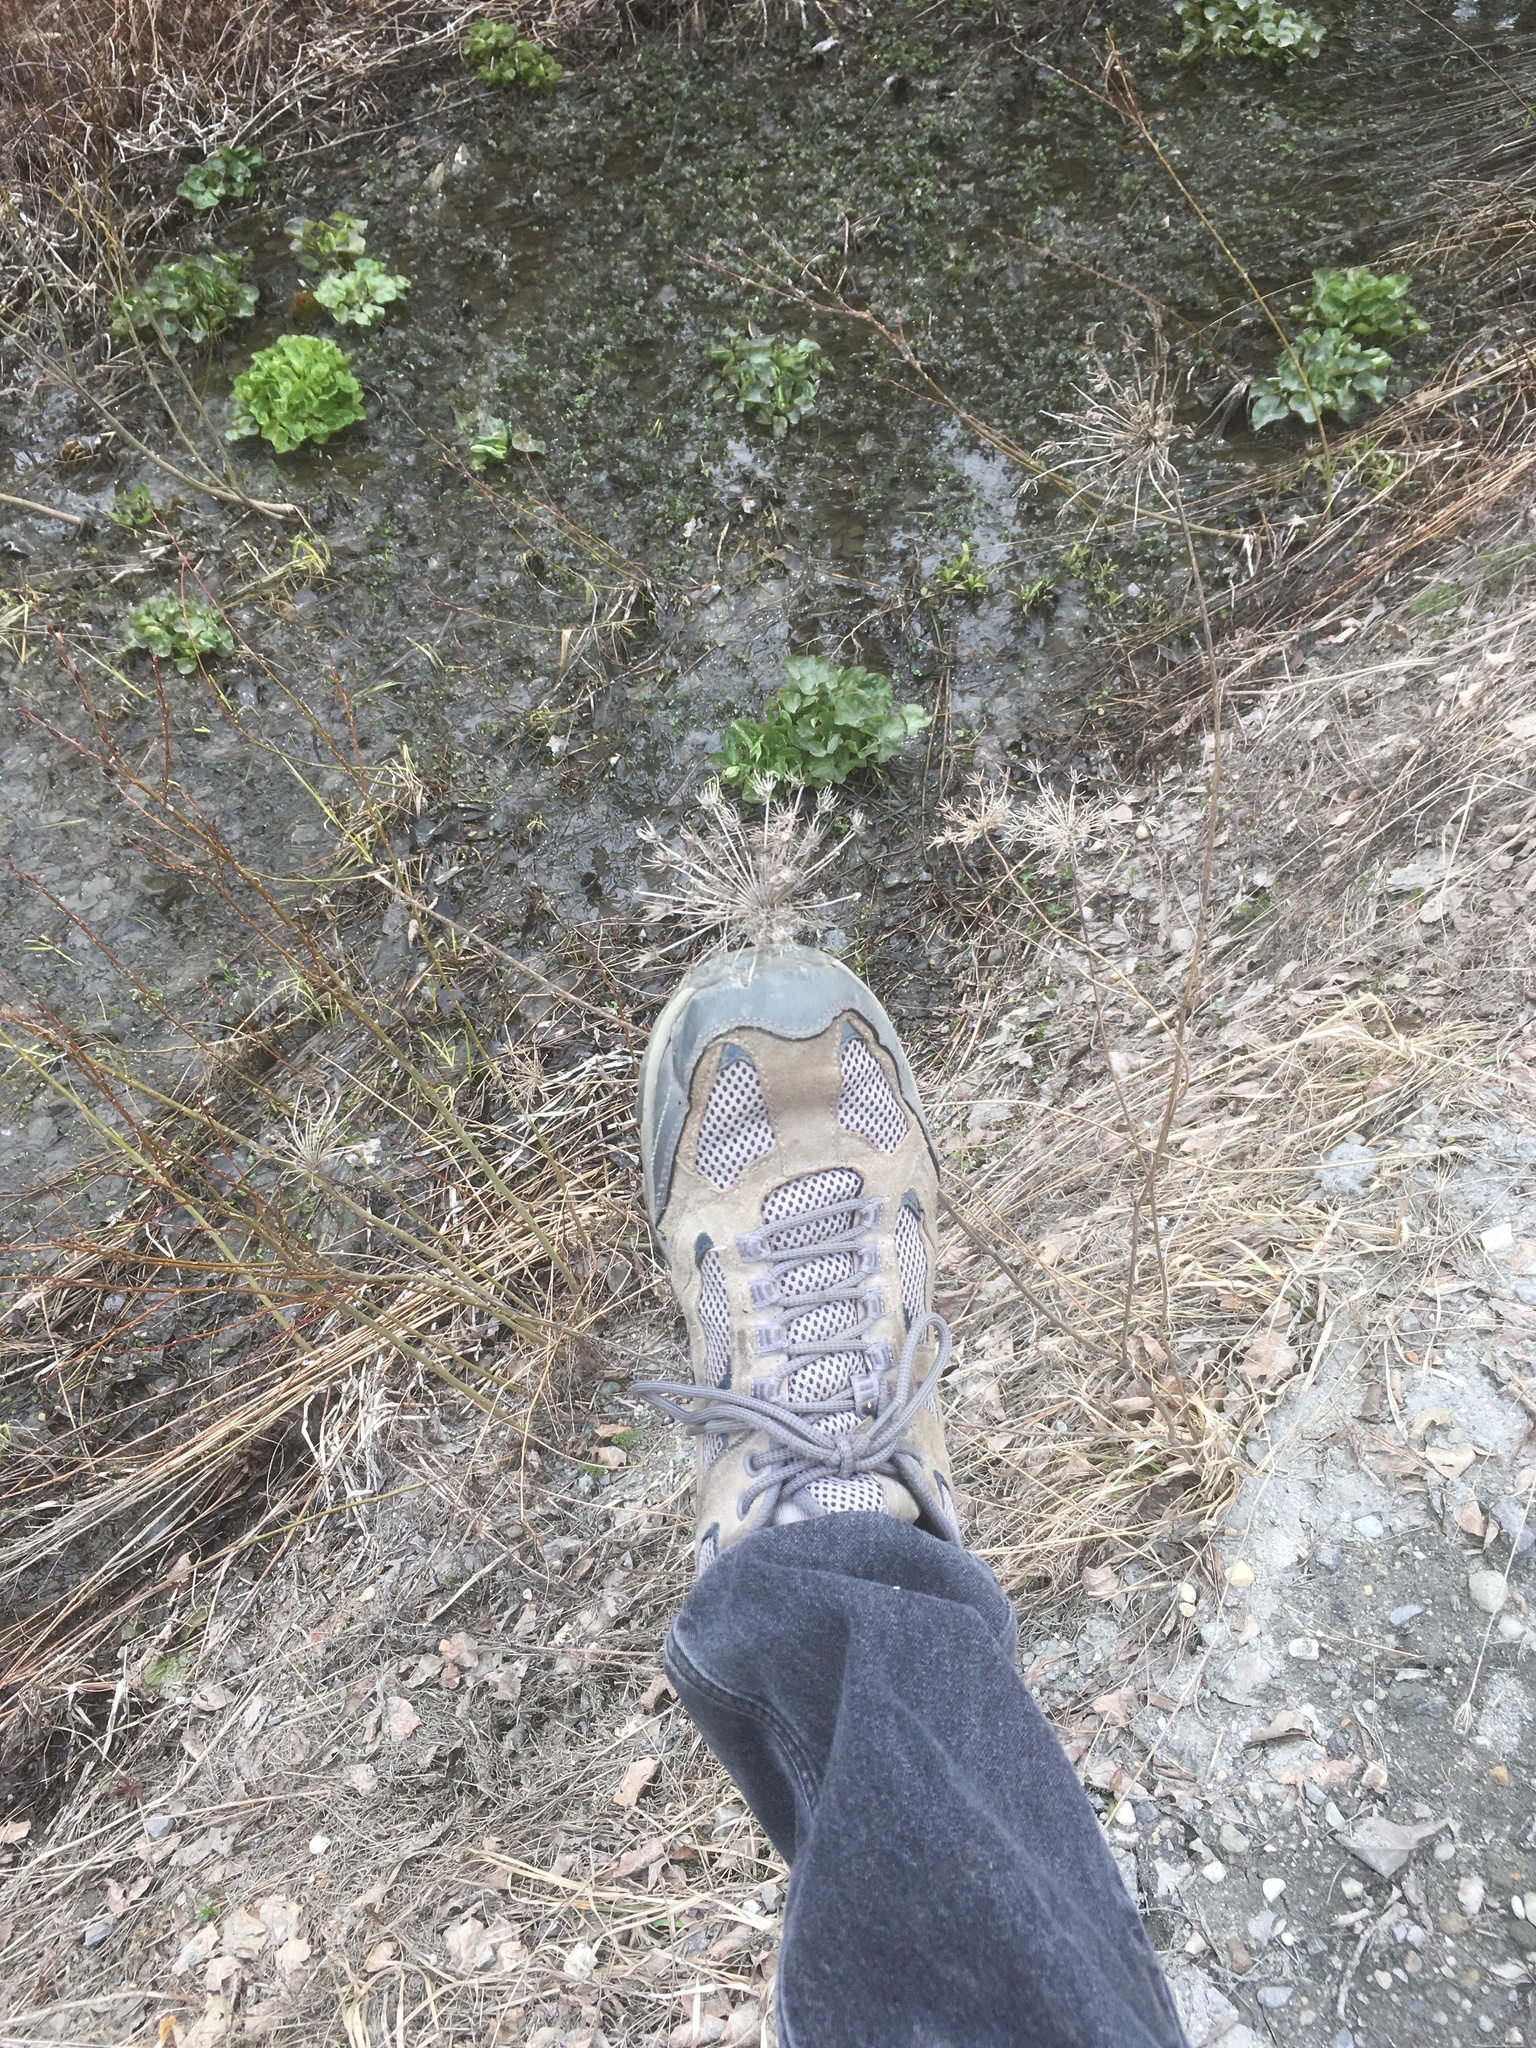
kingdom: Plantae
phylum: Tracheophyta
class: Magnoliopsida
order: Apiales
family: Apiaceae
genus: Daucus
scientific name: Daucus carota
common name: Wild carrot
